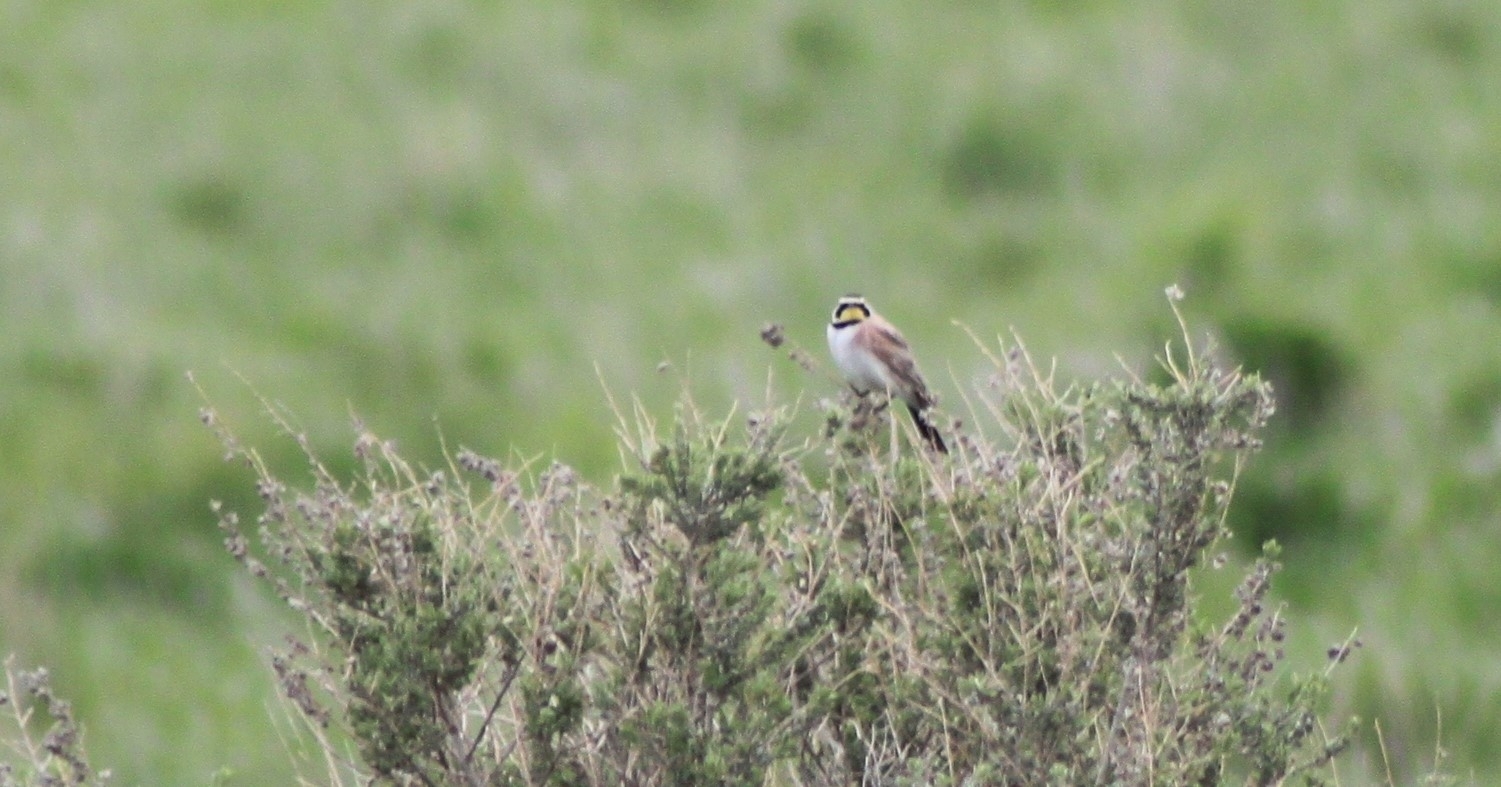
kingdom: Animalia
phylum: Chordata
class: Aves
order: Passeriformes
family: Alaudidae
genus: Eremophila
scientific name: Eremophila alpestris
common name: Horned lark
